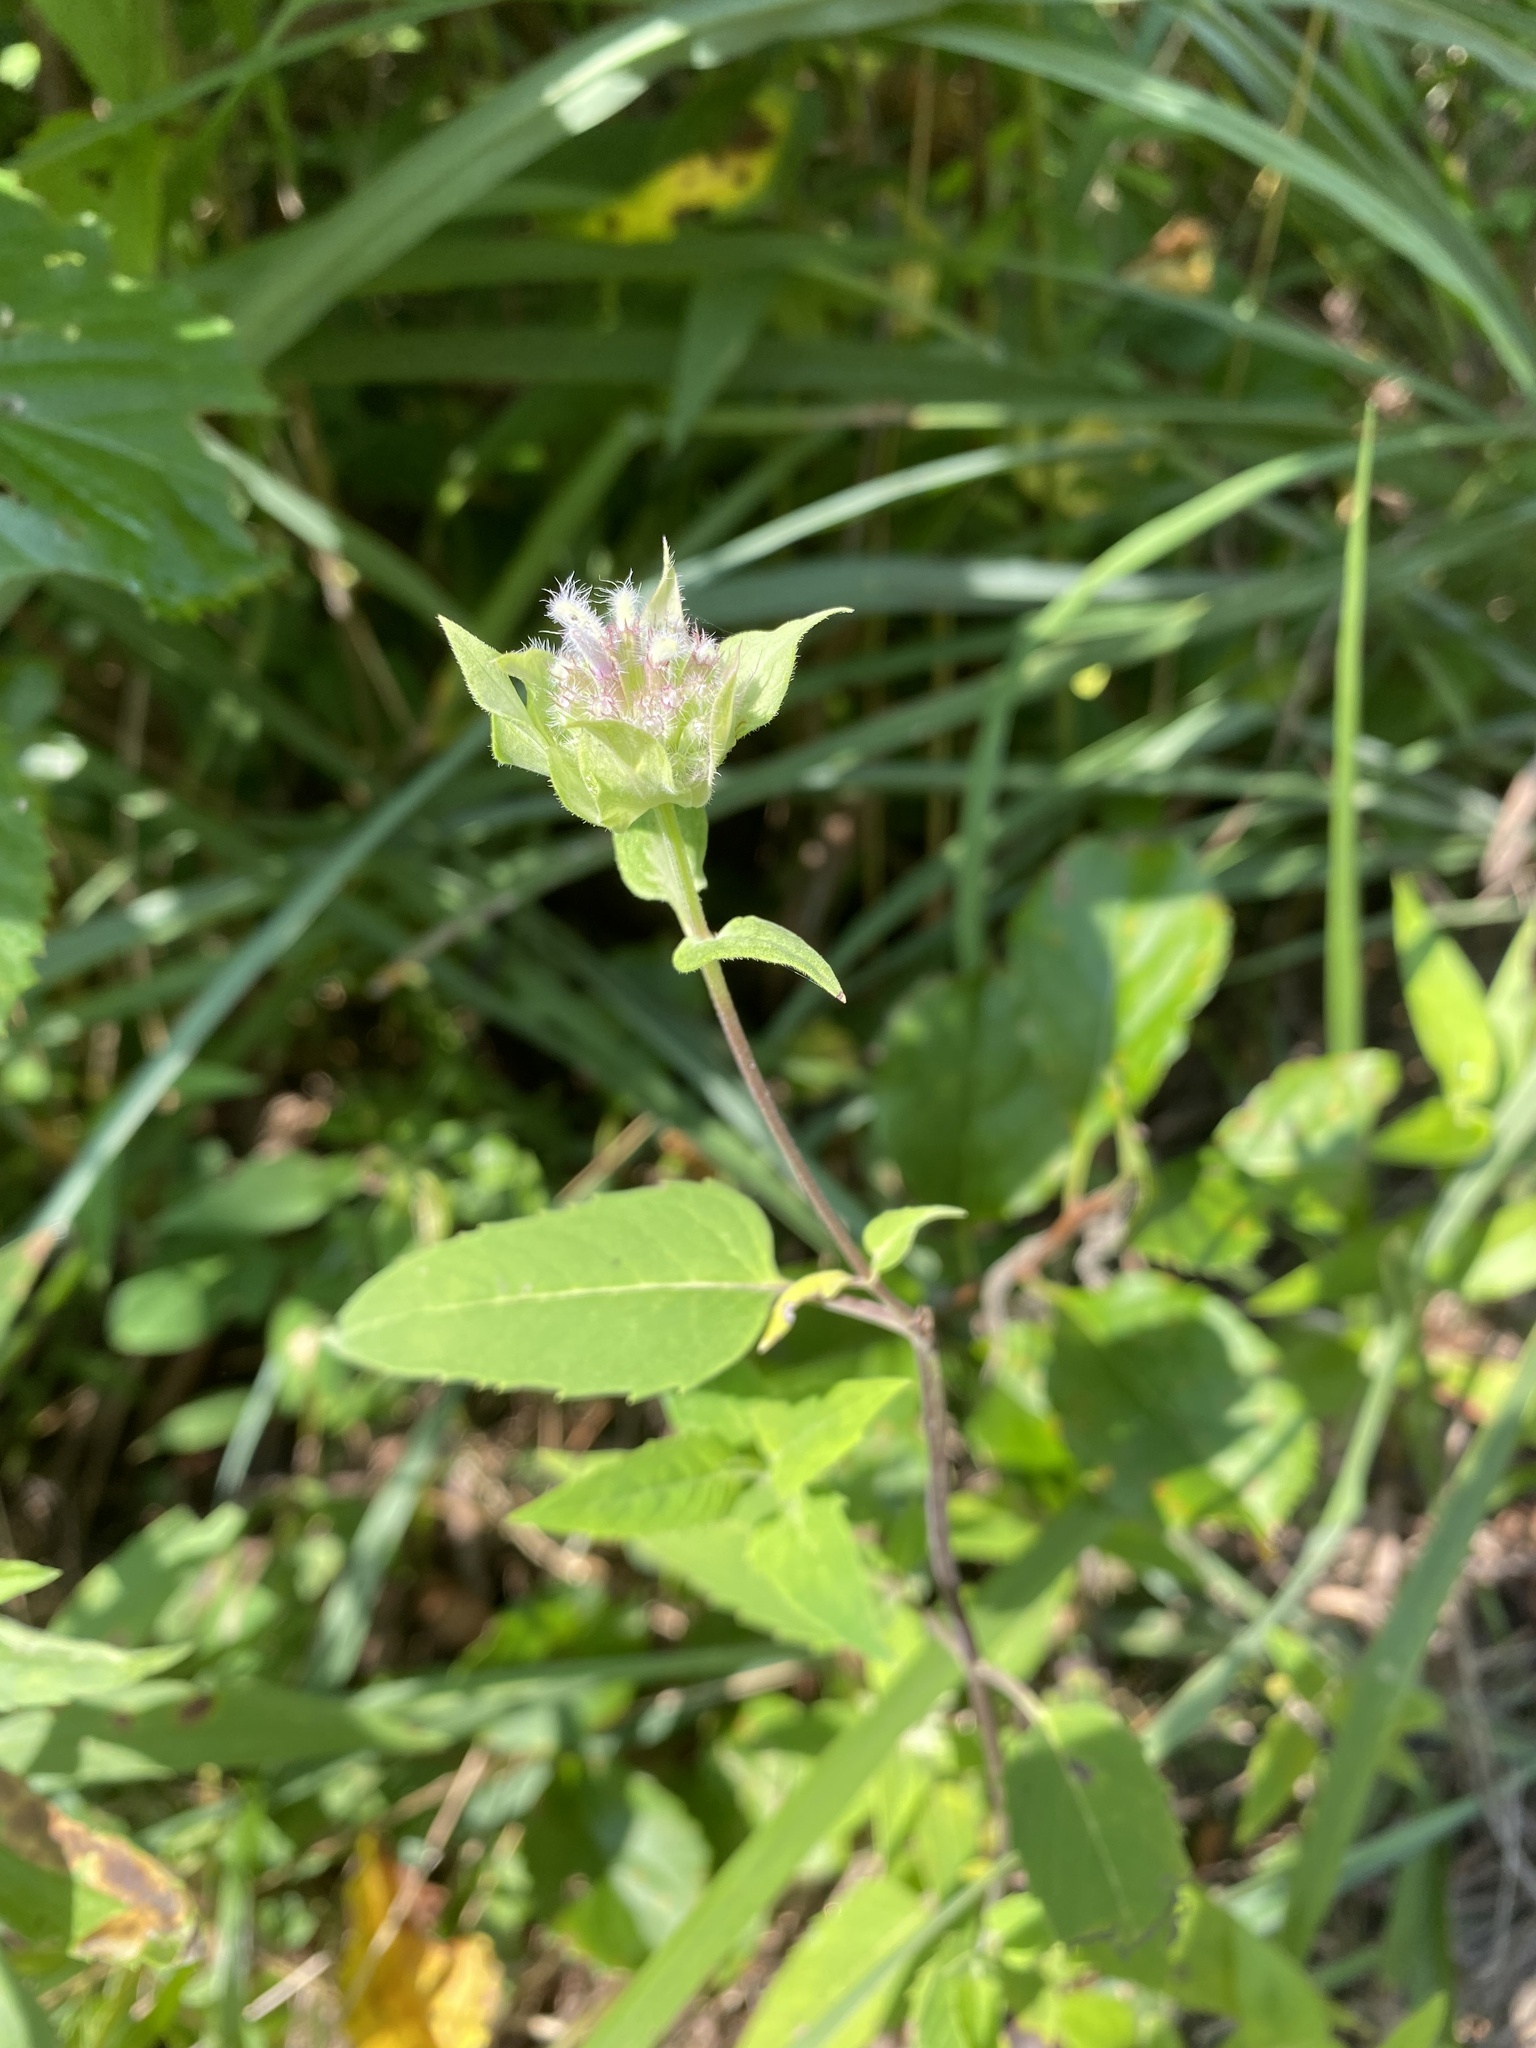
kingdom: Plantae
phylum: Tracheophyta
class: Magnoliopsida
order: Lamiales
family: Lamiaceae
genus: Monarda
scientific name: Monarda fistulosa
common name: Purple beebalm
